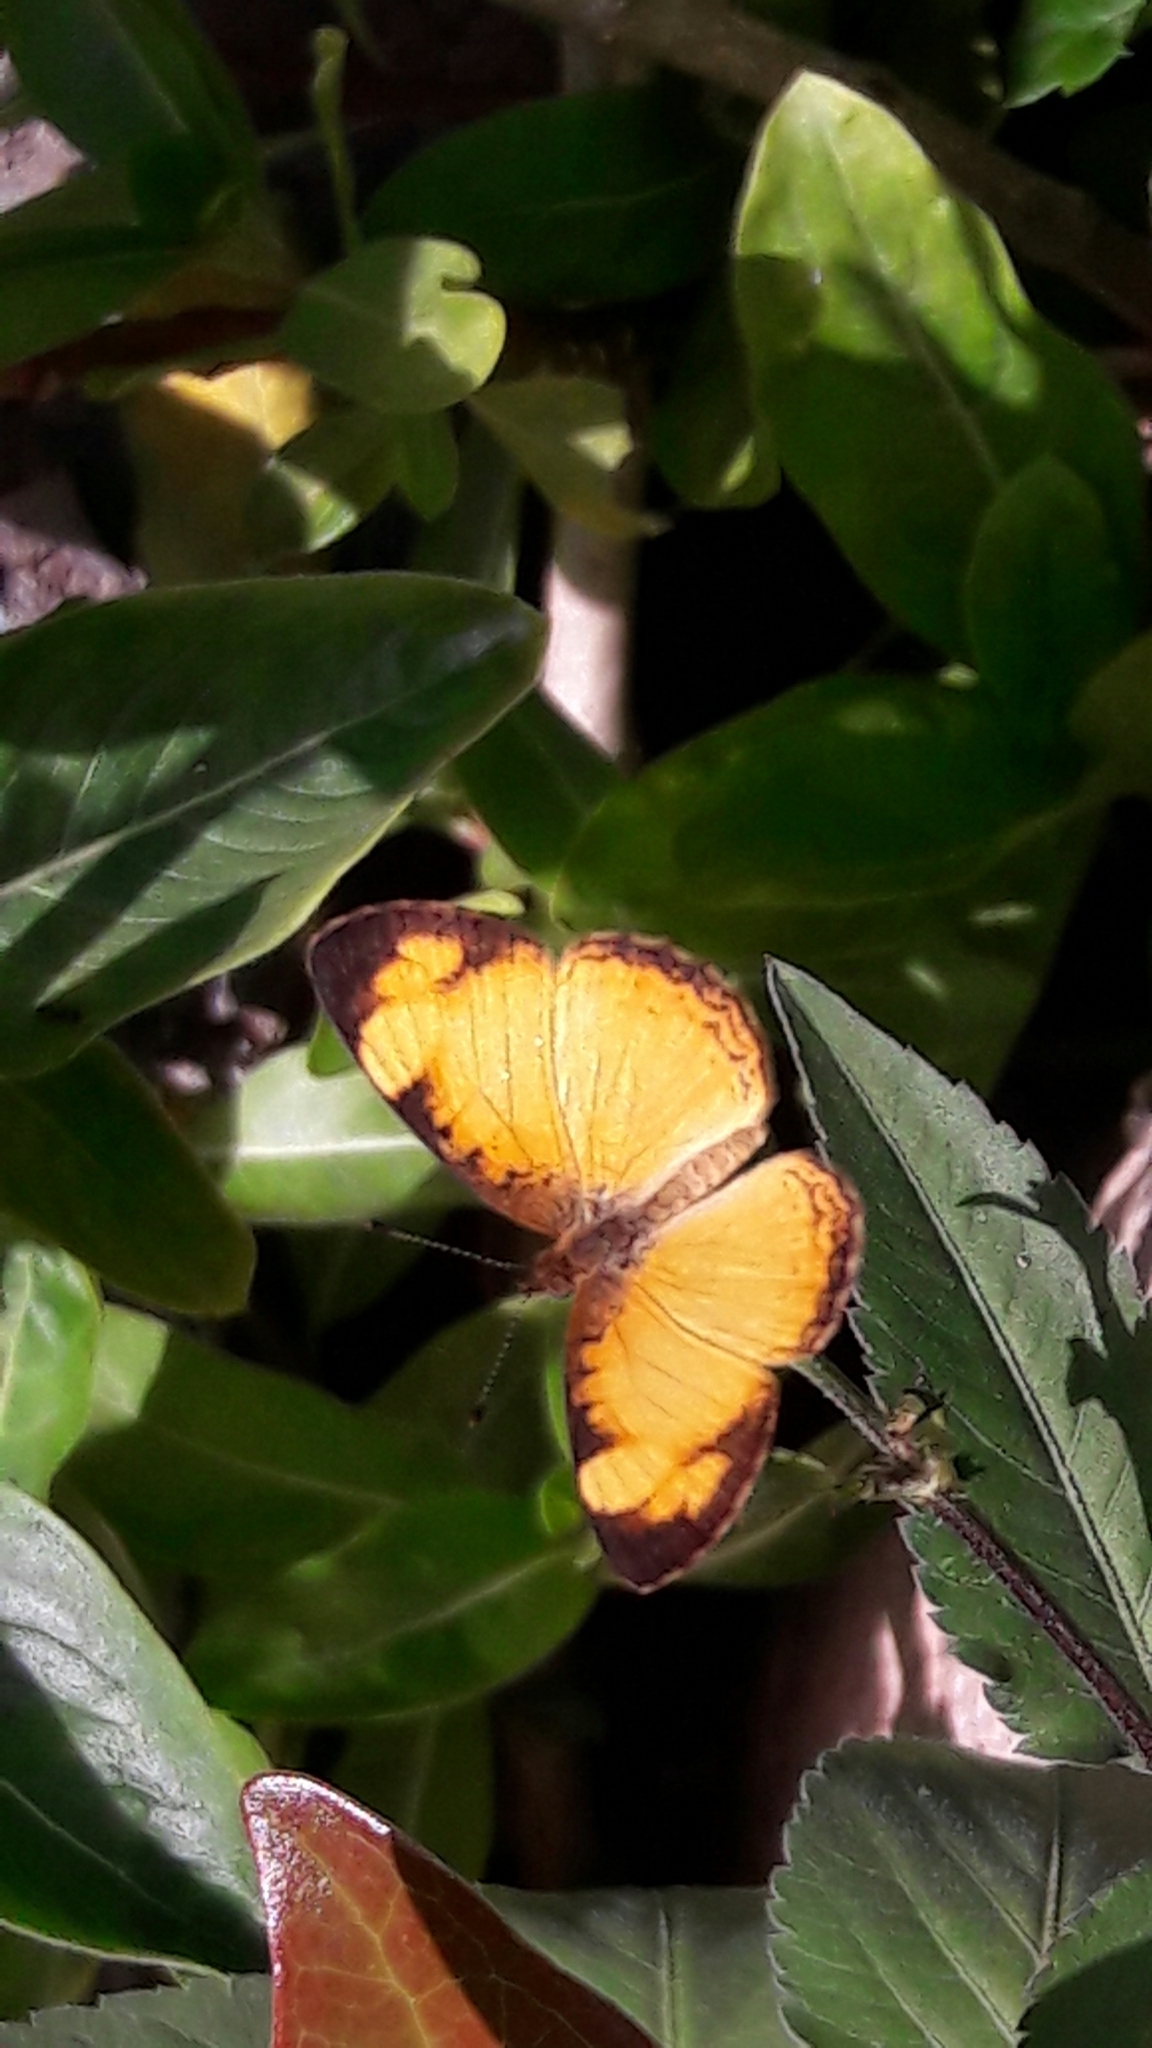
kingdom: Animalia
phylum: Arthropoda
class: Insecta
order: Lepidoptera
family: Nymphalidae
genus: Tegosa
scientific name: Tegosa claudina
